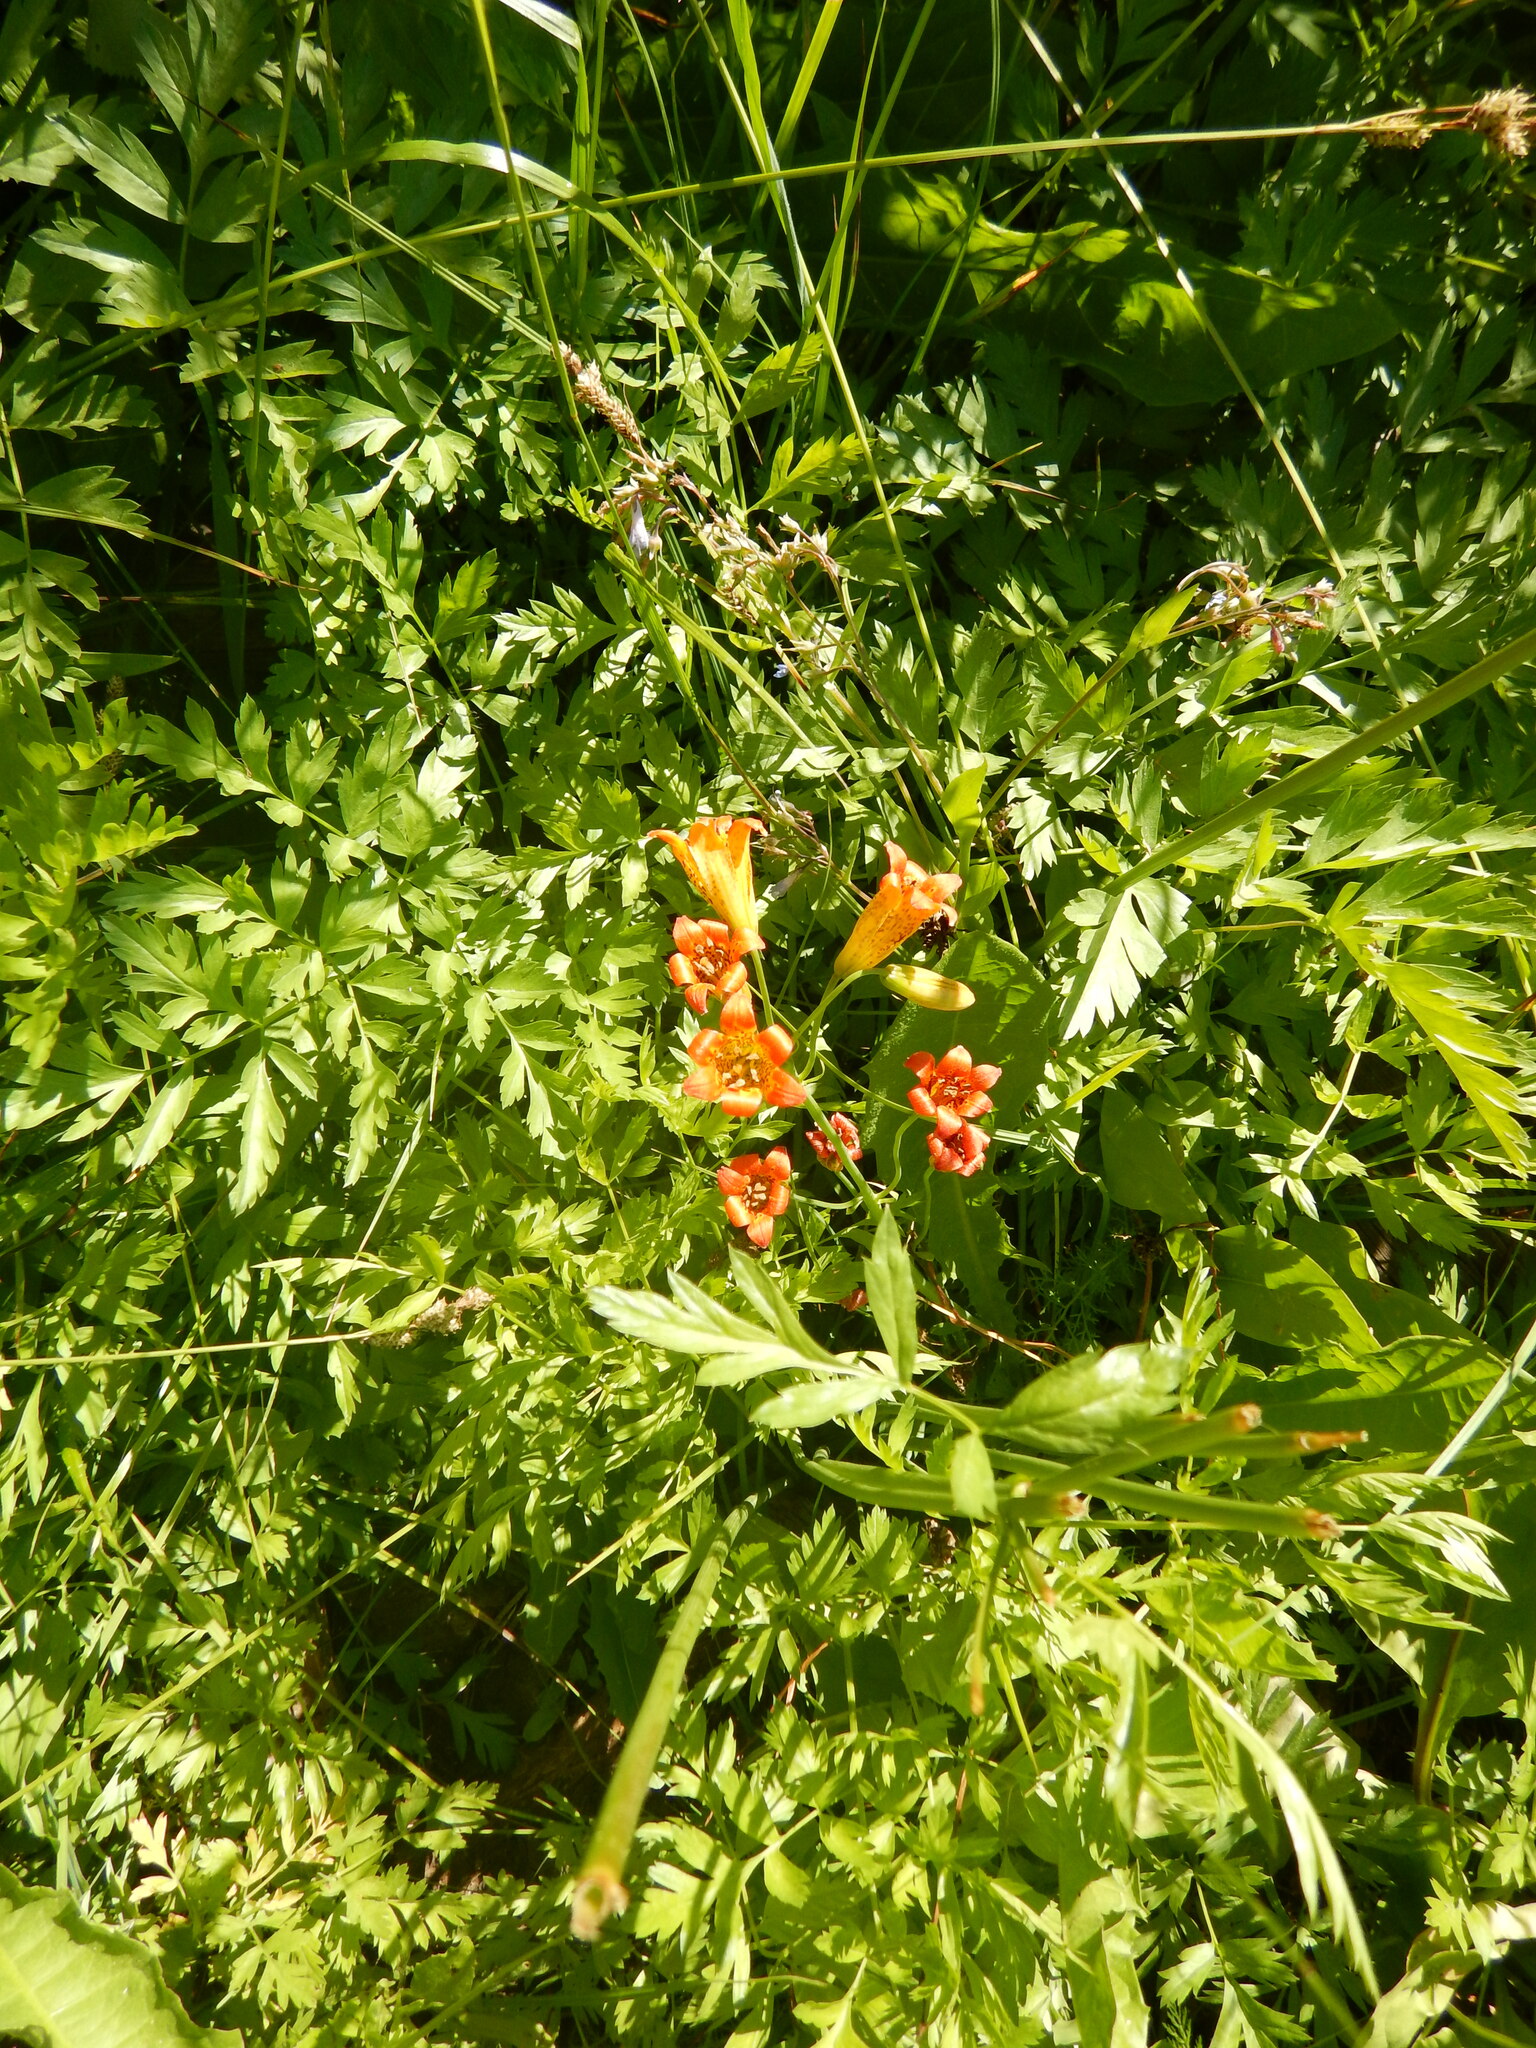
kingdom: Plantae
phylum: Tracheophyta
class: Liliopsida
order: Liliales
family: Liliaceae
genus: Lilium
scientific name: Lilium parvum
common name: Alpine lily
